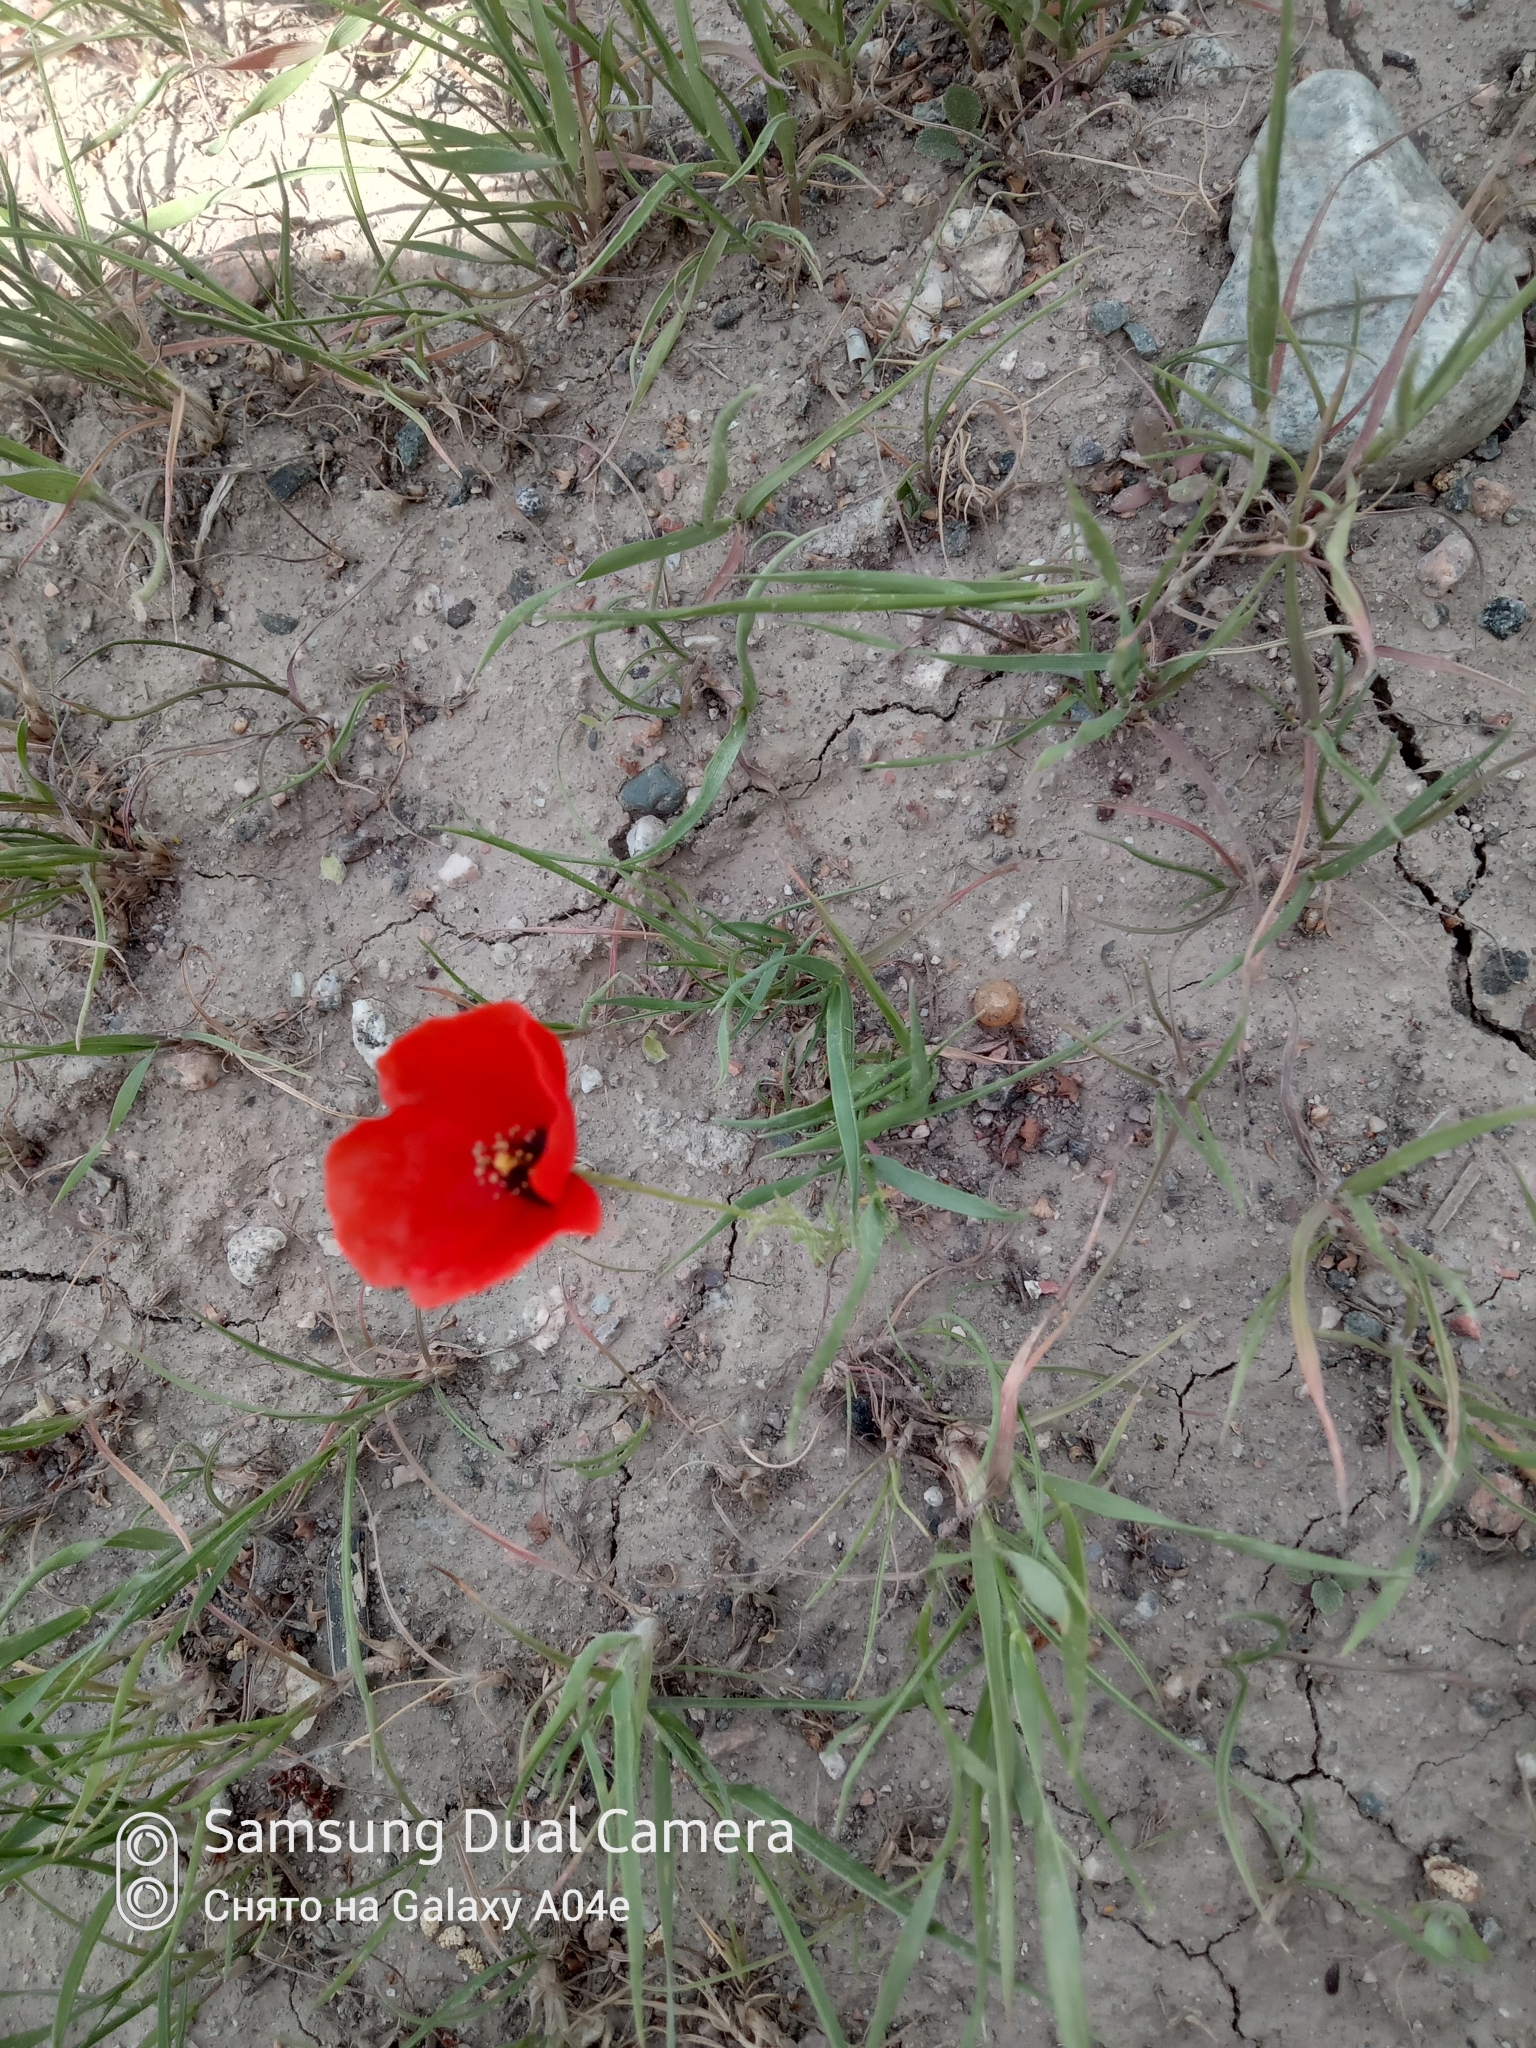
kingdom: Plantae
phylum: Tracheophyta
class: Magnoliopsida
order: Ranunculales
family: Papaveraceae
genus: Roemeria
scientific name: Roemeria refracta
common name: Spotted asian poppy
